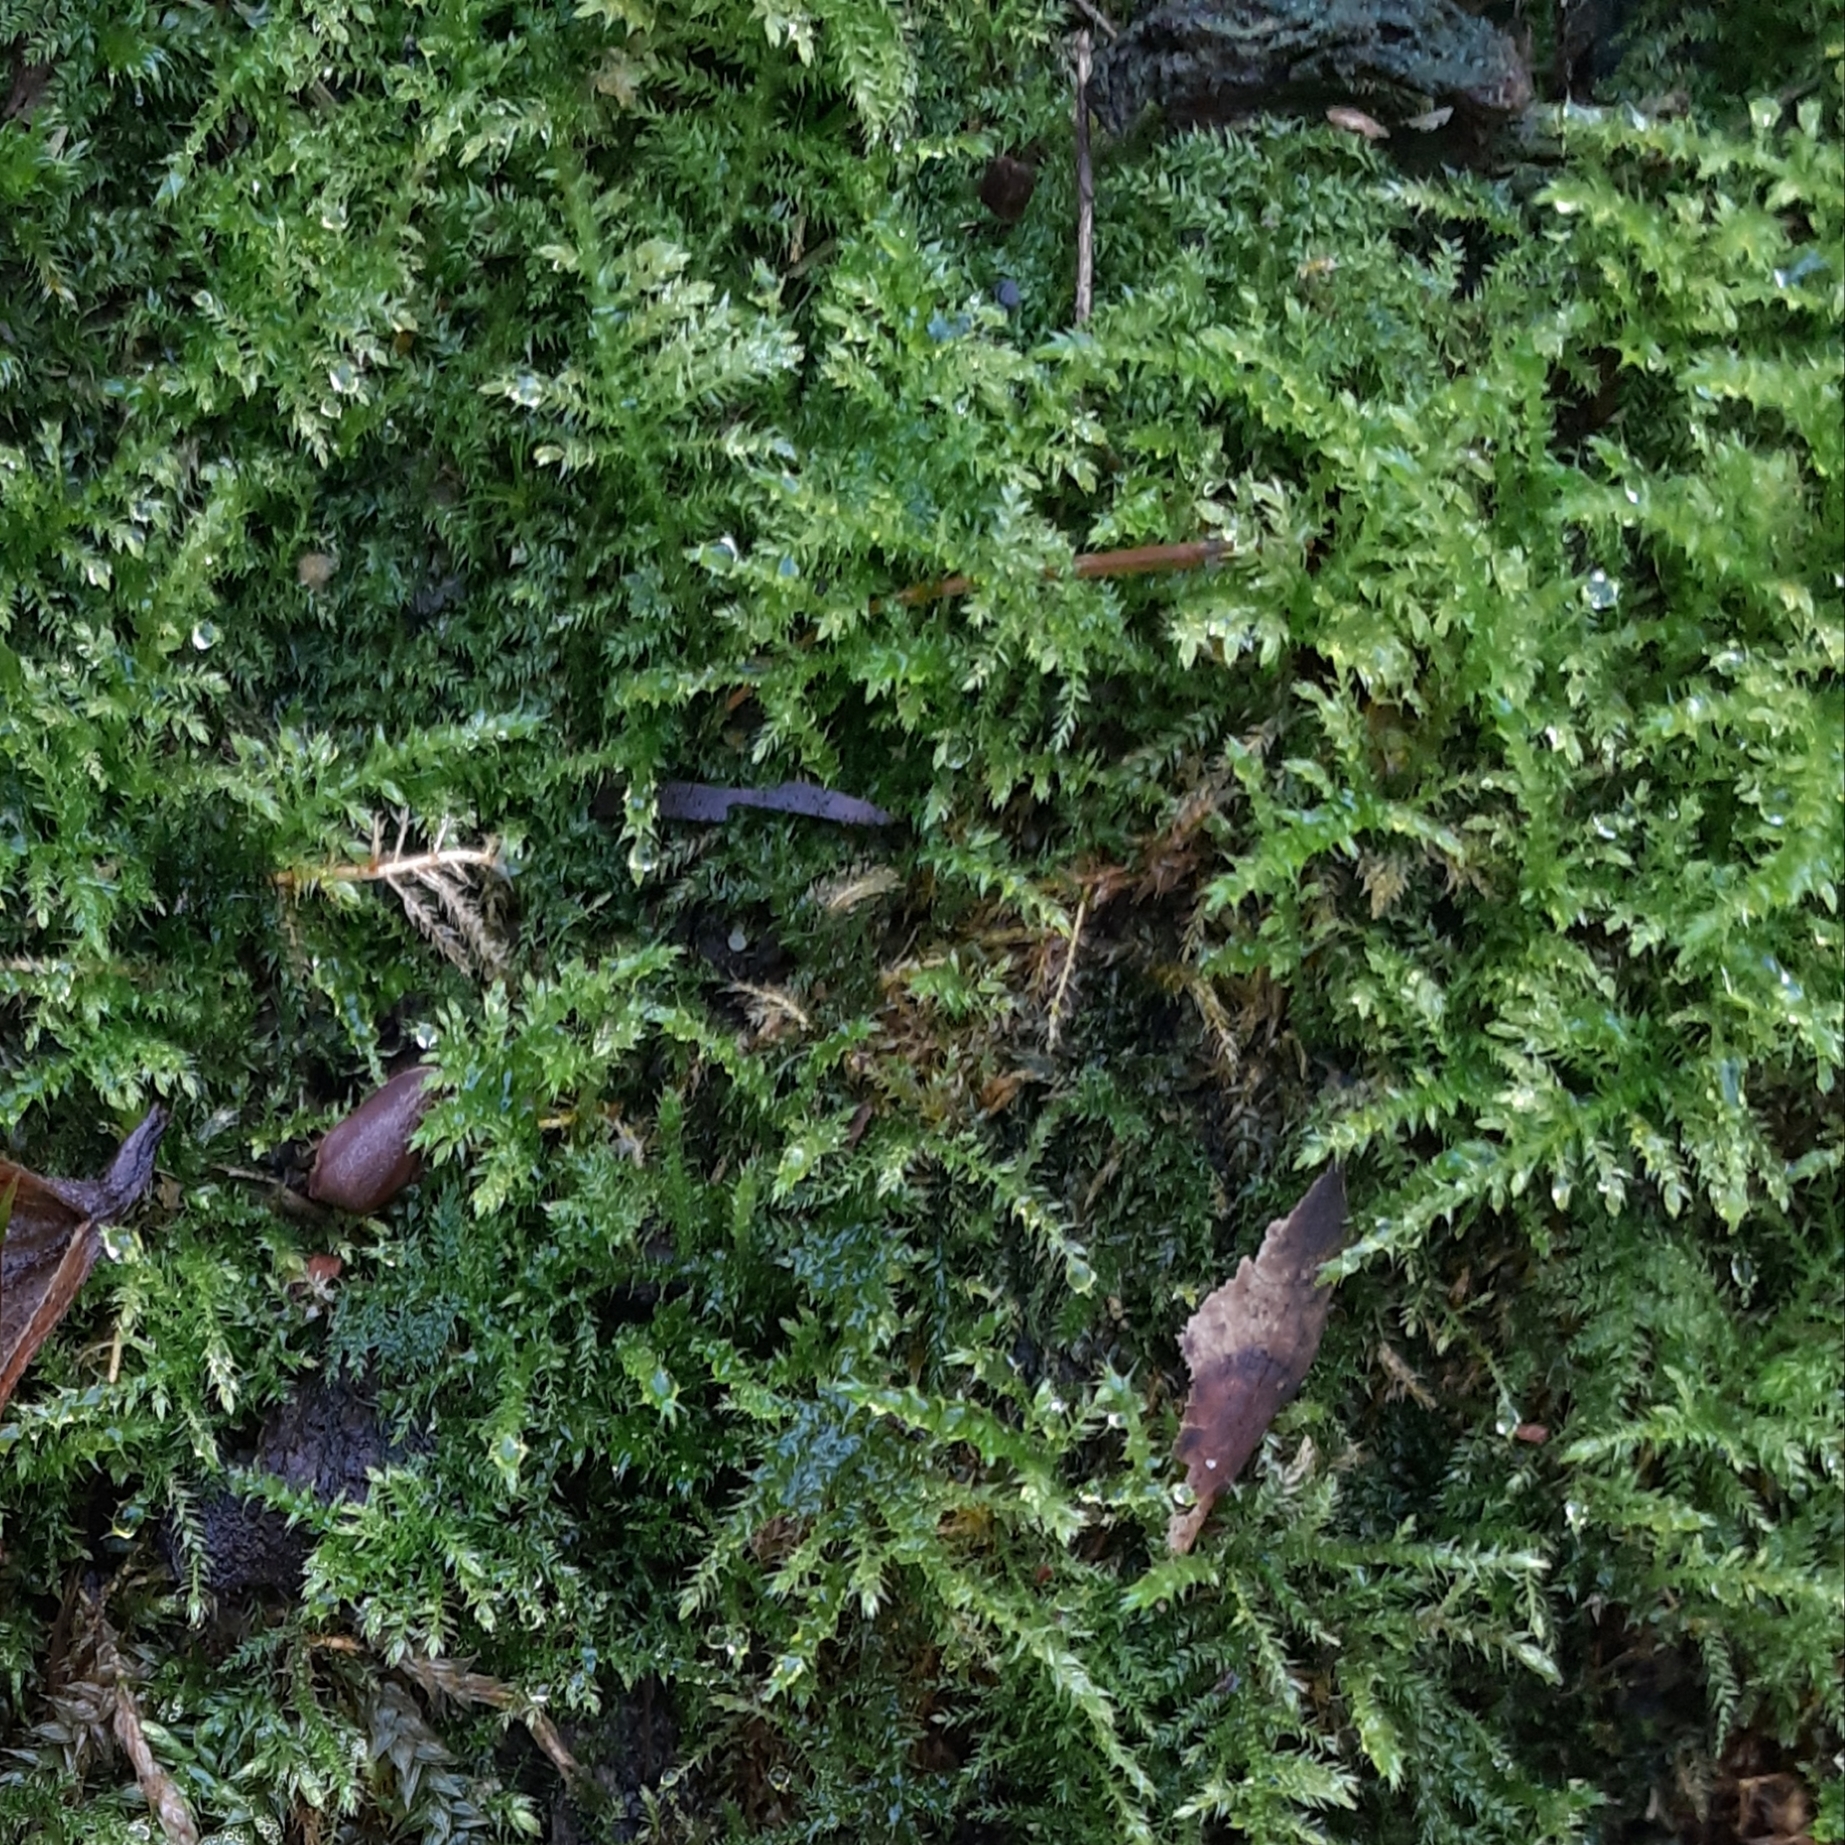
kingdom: Plantae
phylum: Bryophyta
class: Bryopsida
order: Hypnales
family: Brachytheciaceae
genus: Kindbergia
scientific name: Kindbergia praelonga
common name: Slender beaked moss
